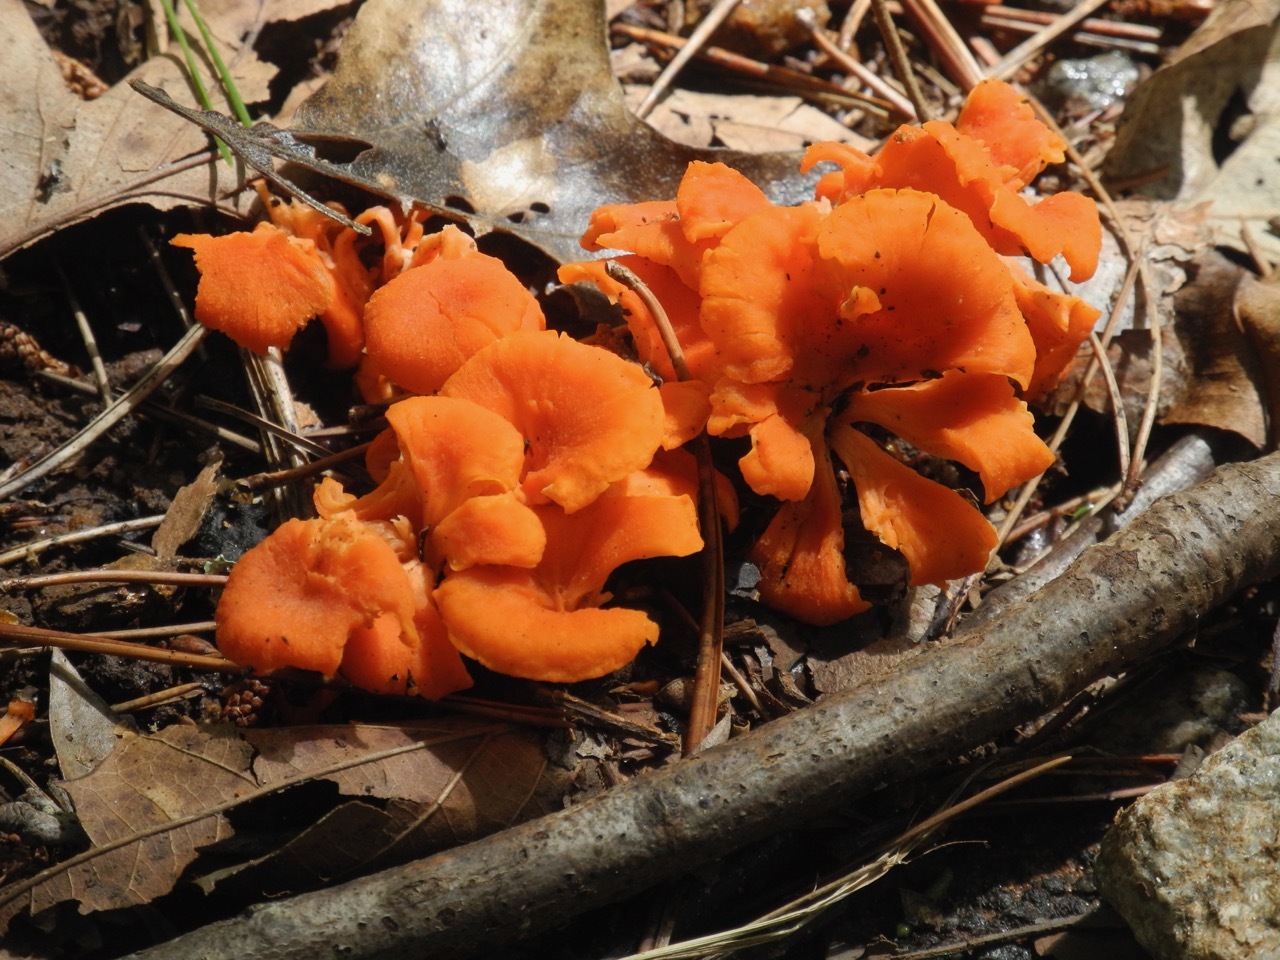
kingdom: Fungi
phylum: Basidiomycota
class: Agaricomycetes
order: Cantharellales
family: Hydnaceae
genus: Cantharellus
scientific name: Cantharellus cinnabarinus
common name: Cinnabar chanterelle
